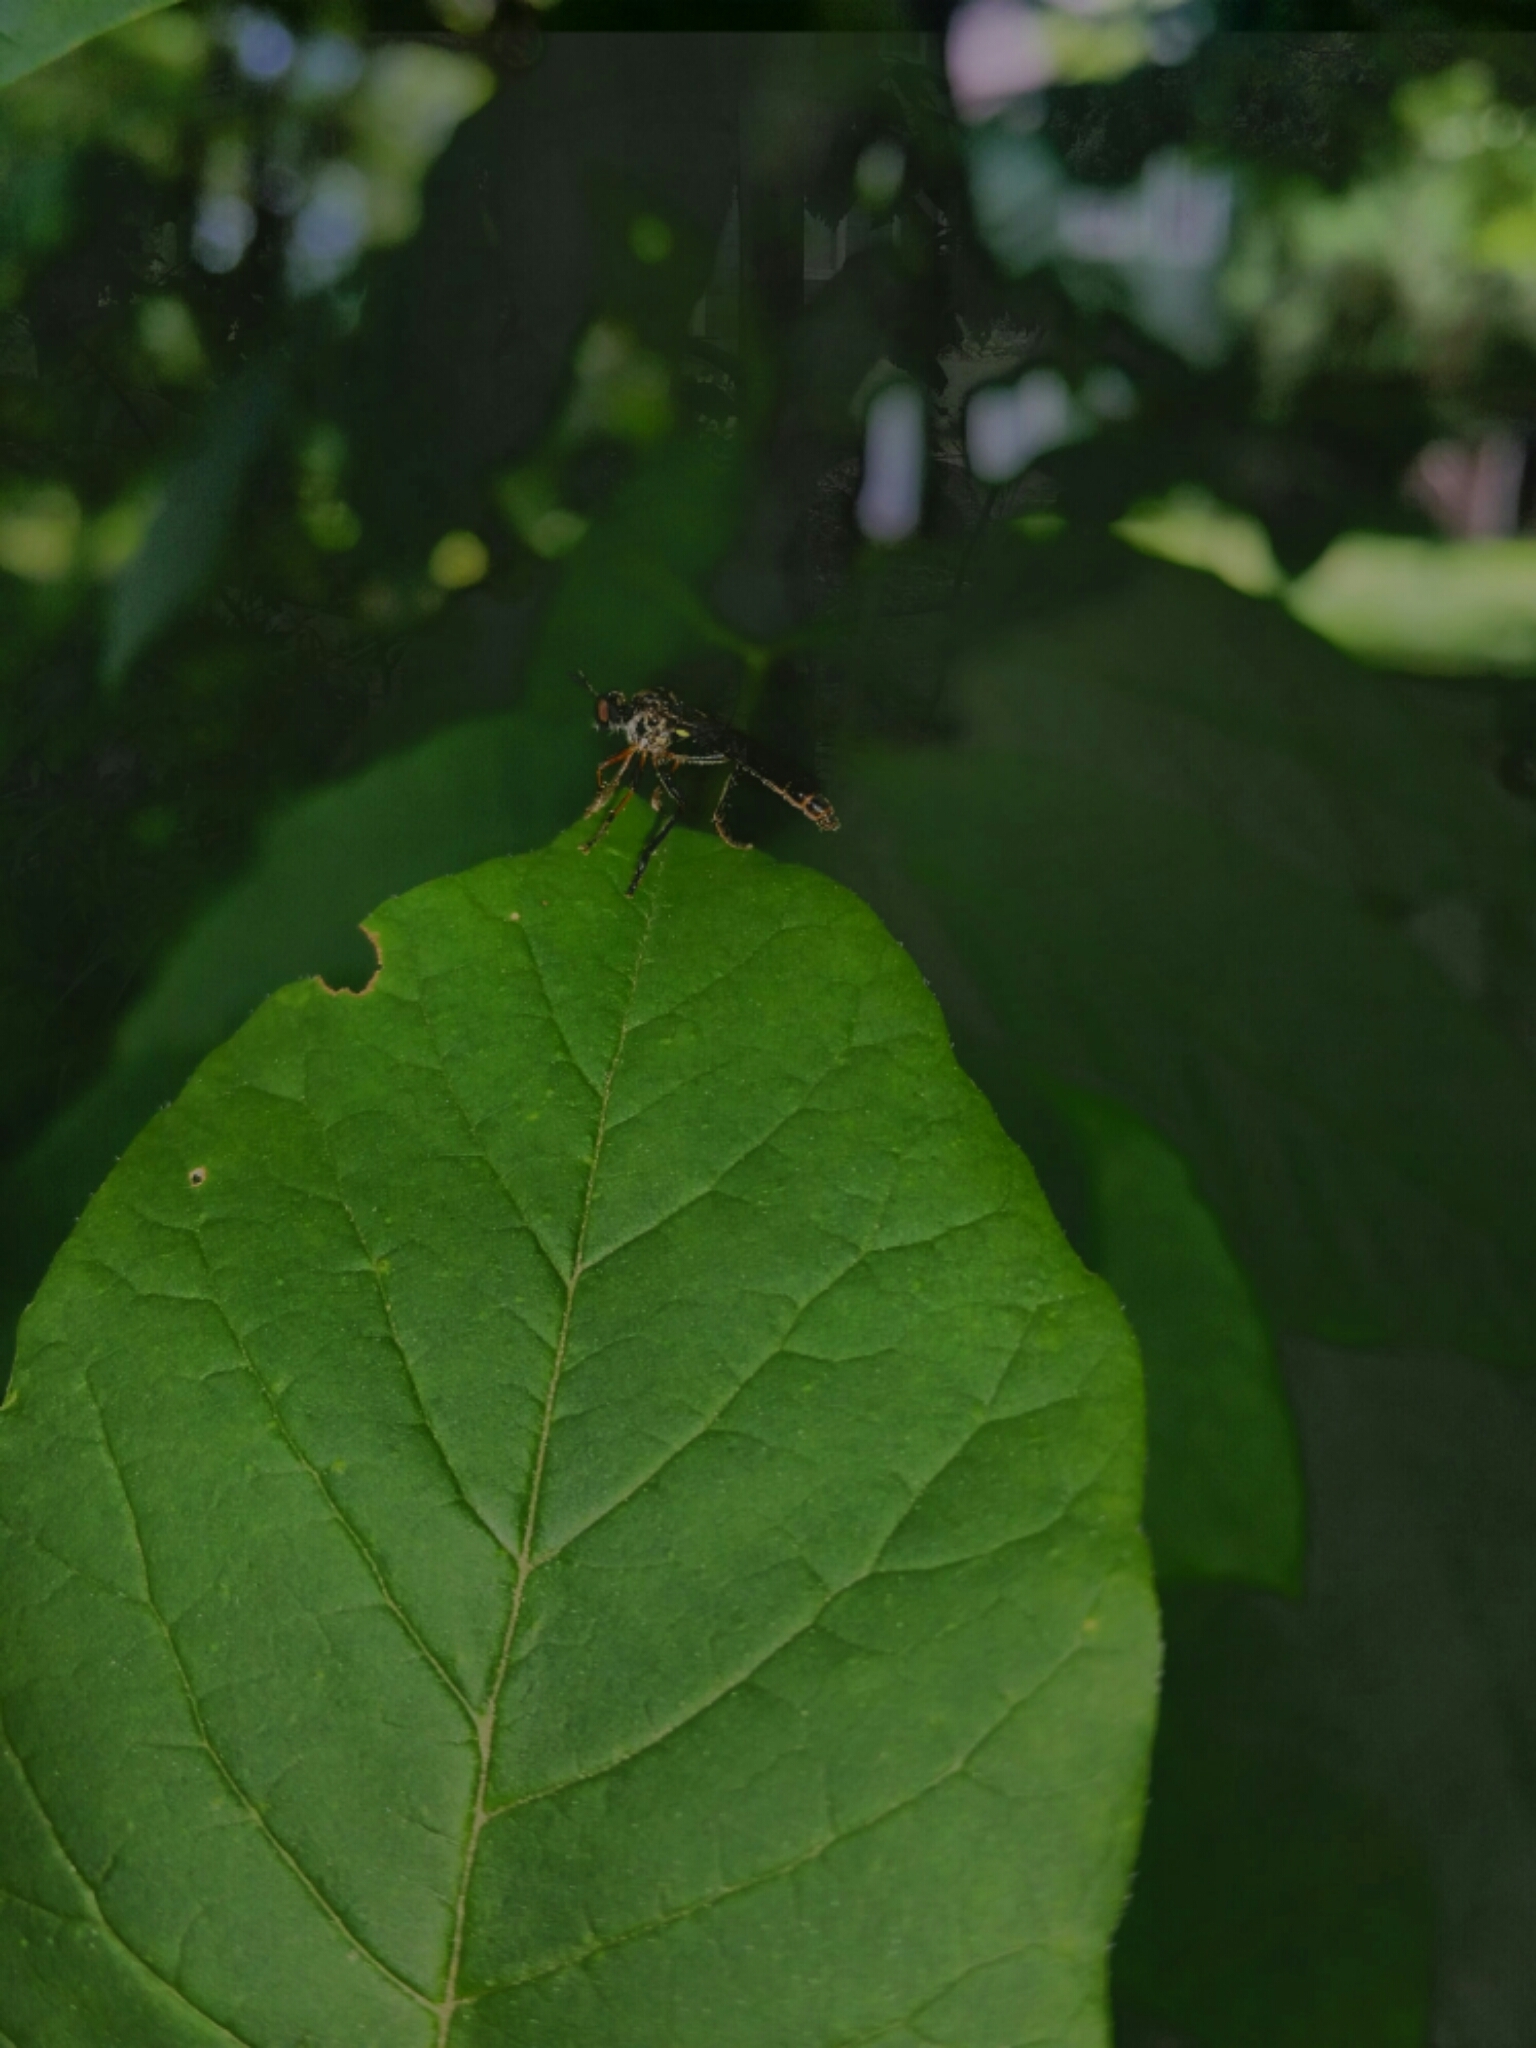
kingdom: Animalia
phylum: Arthropoda
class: Insecta
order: Diptera
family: Asilidae
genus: Dioctria
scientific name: Dioctria hyalipennis
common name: Stripe-legged robberfly
